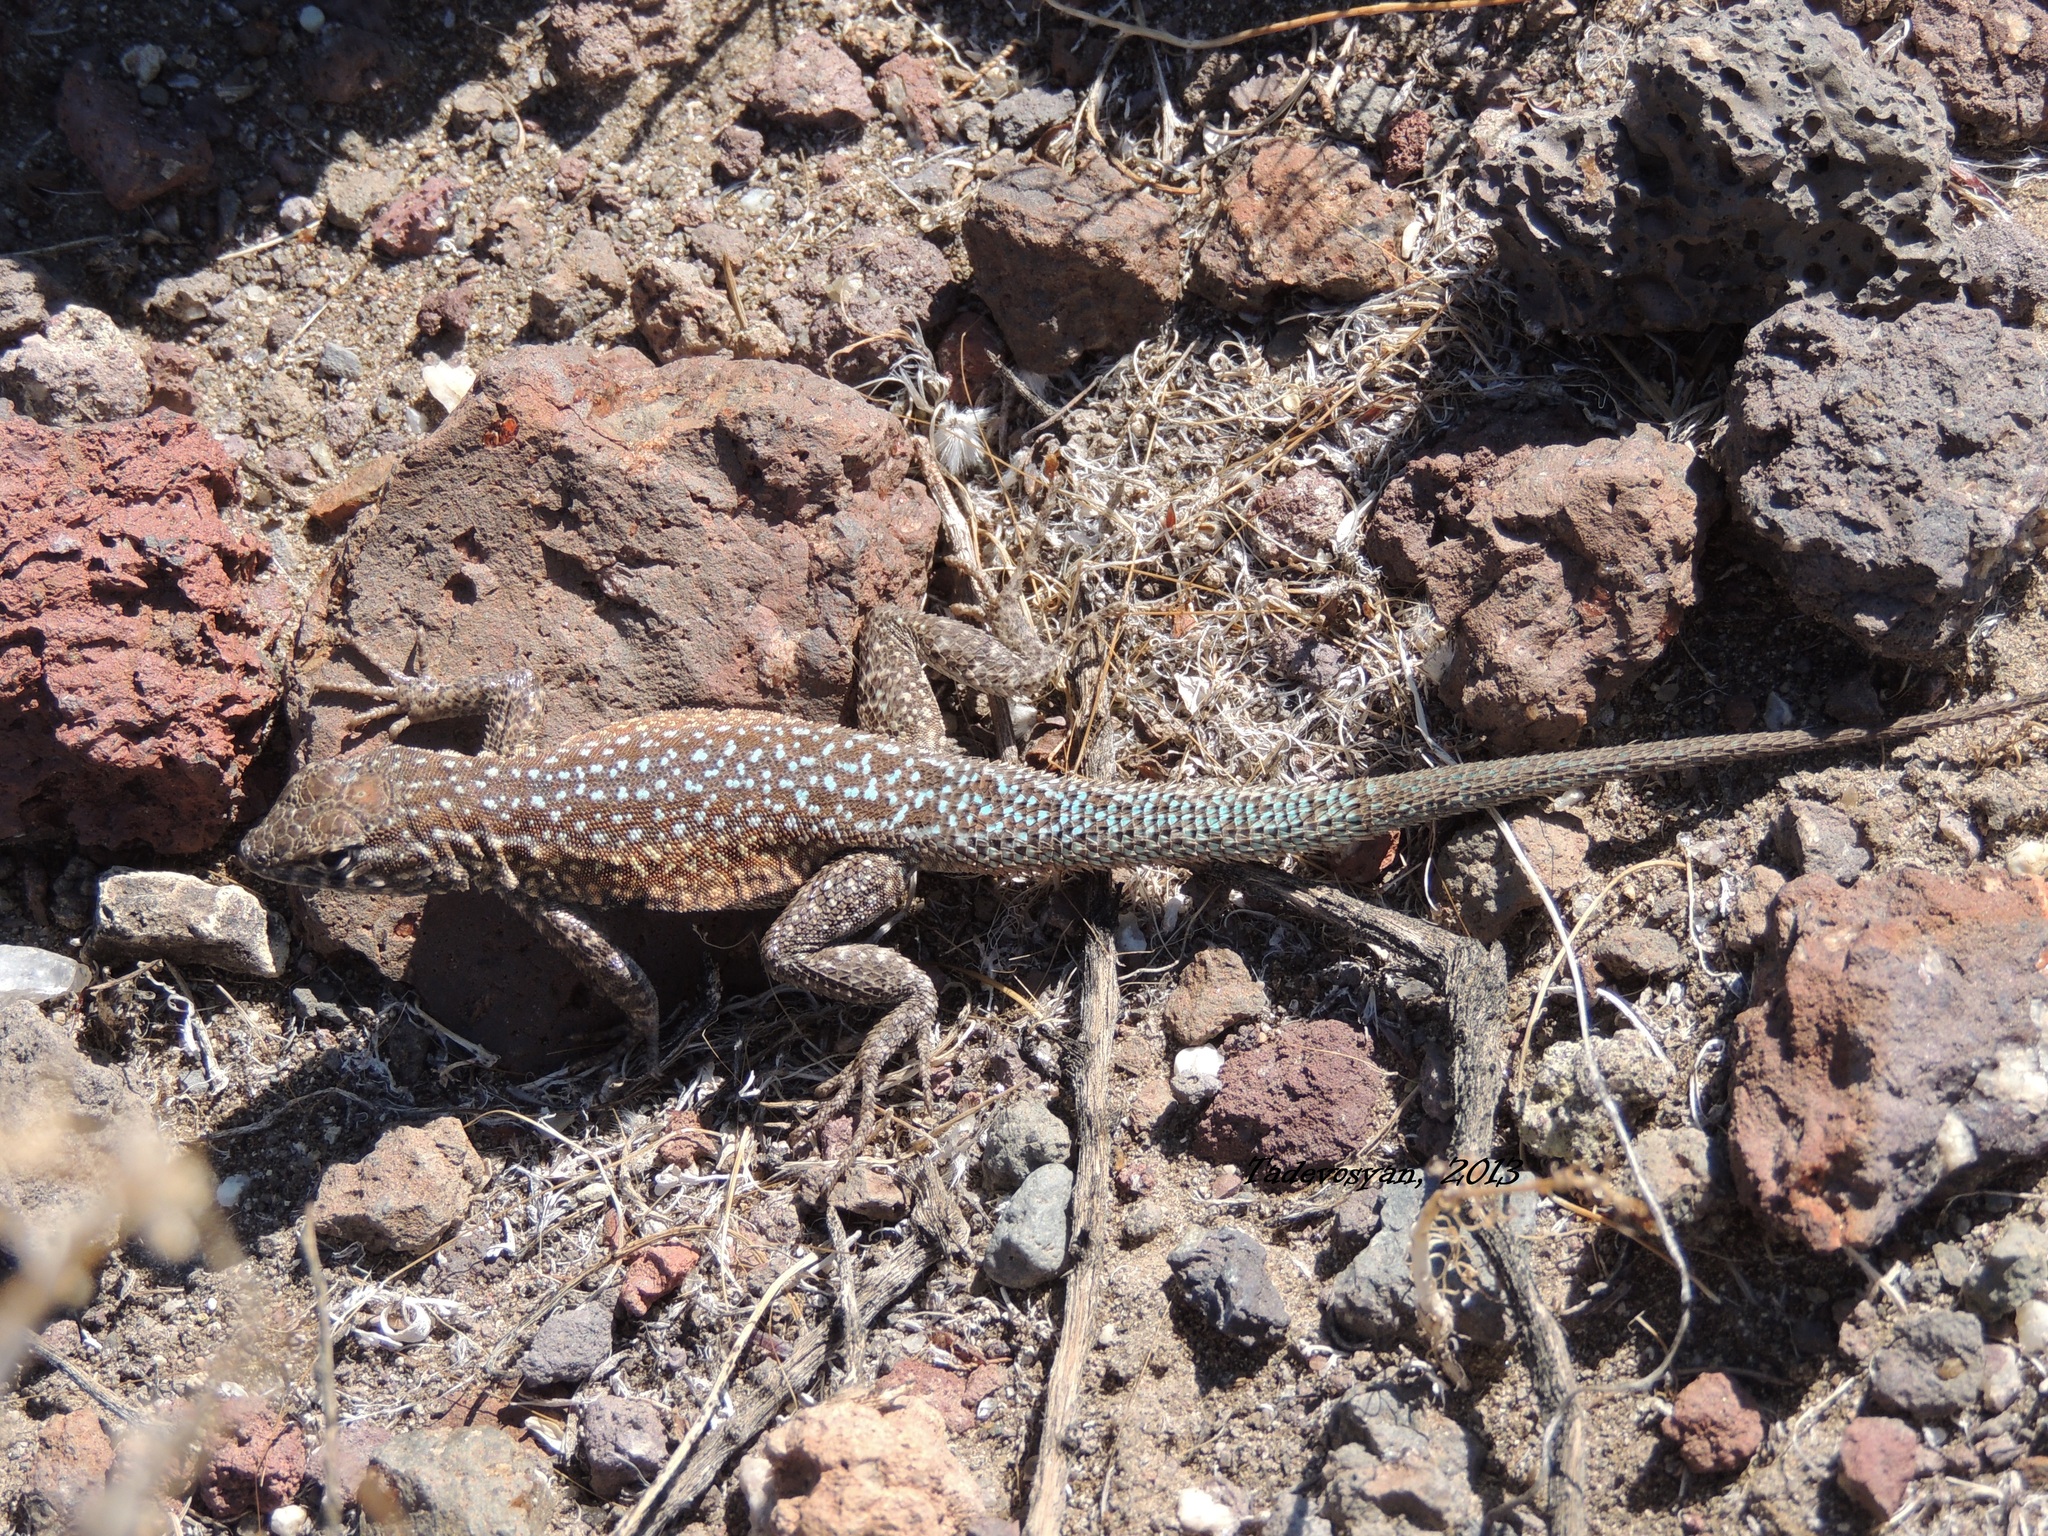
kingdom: Animalia
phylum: Chordata
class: Squamata
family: Phrynosomatidae
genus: Uta
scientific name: Uta stansburiana
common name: Side-blotched lizard
